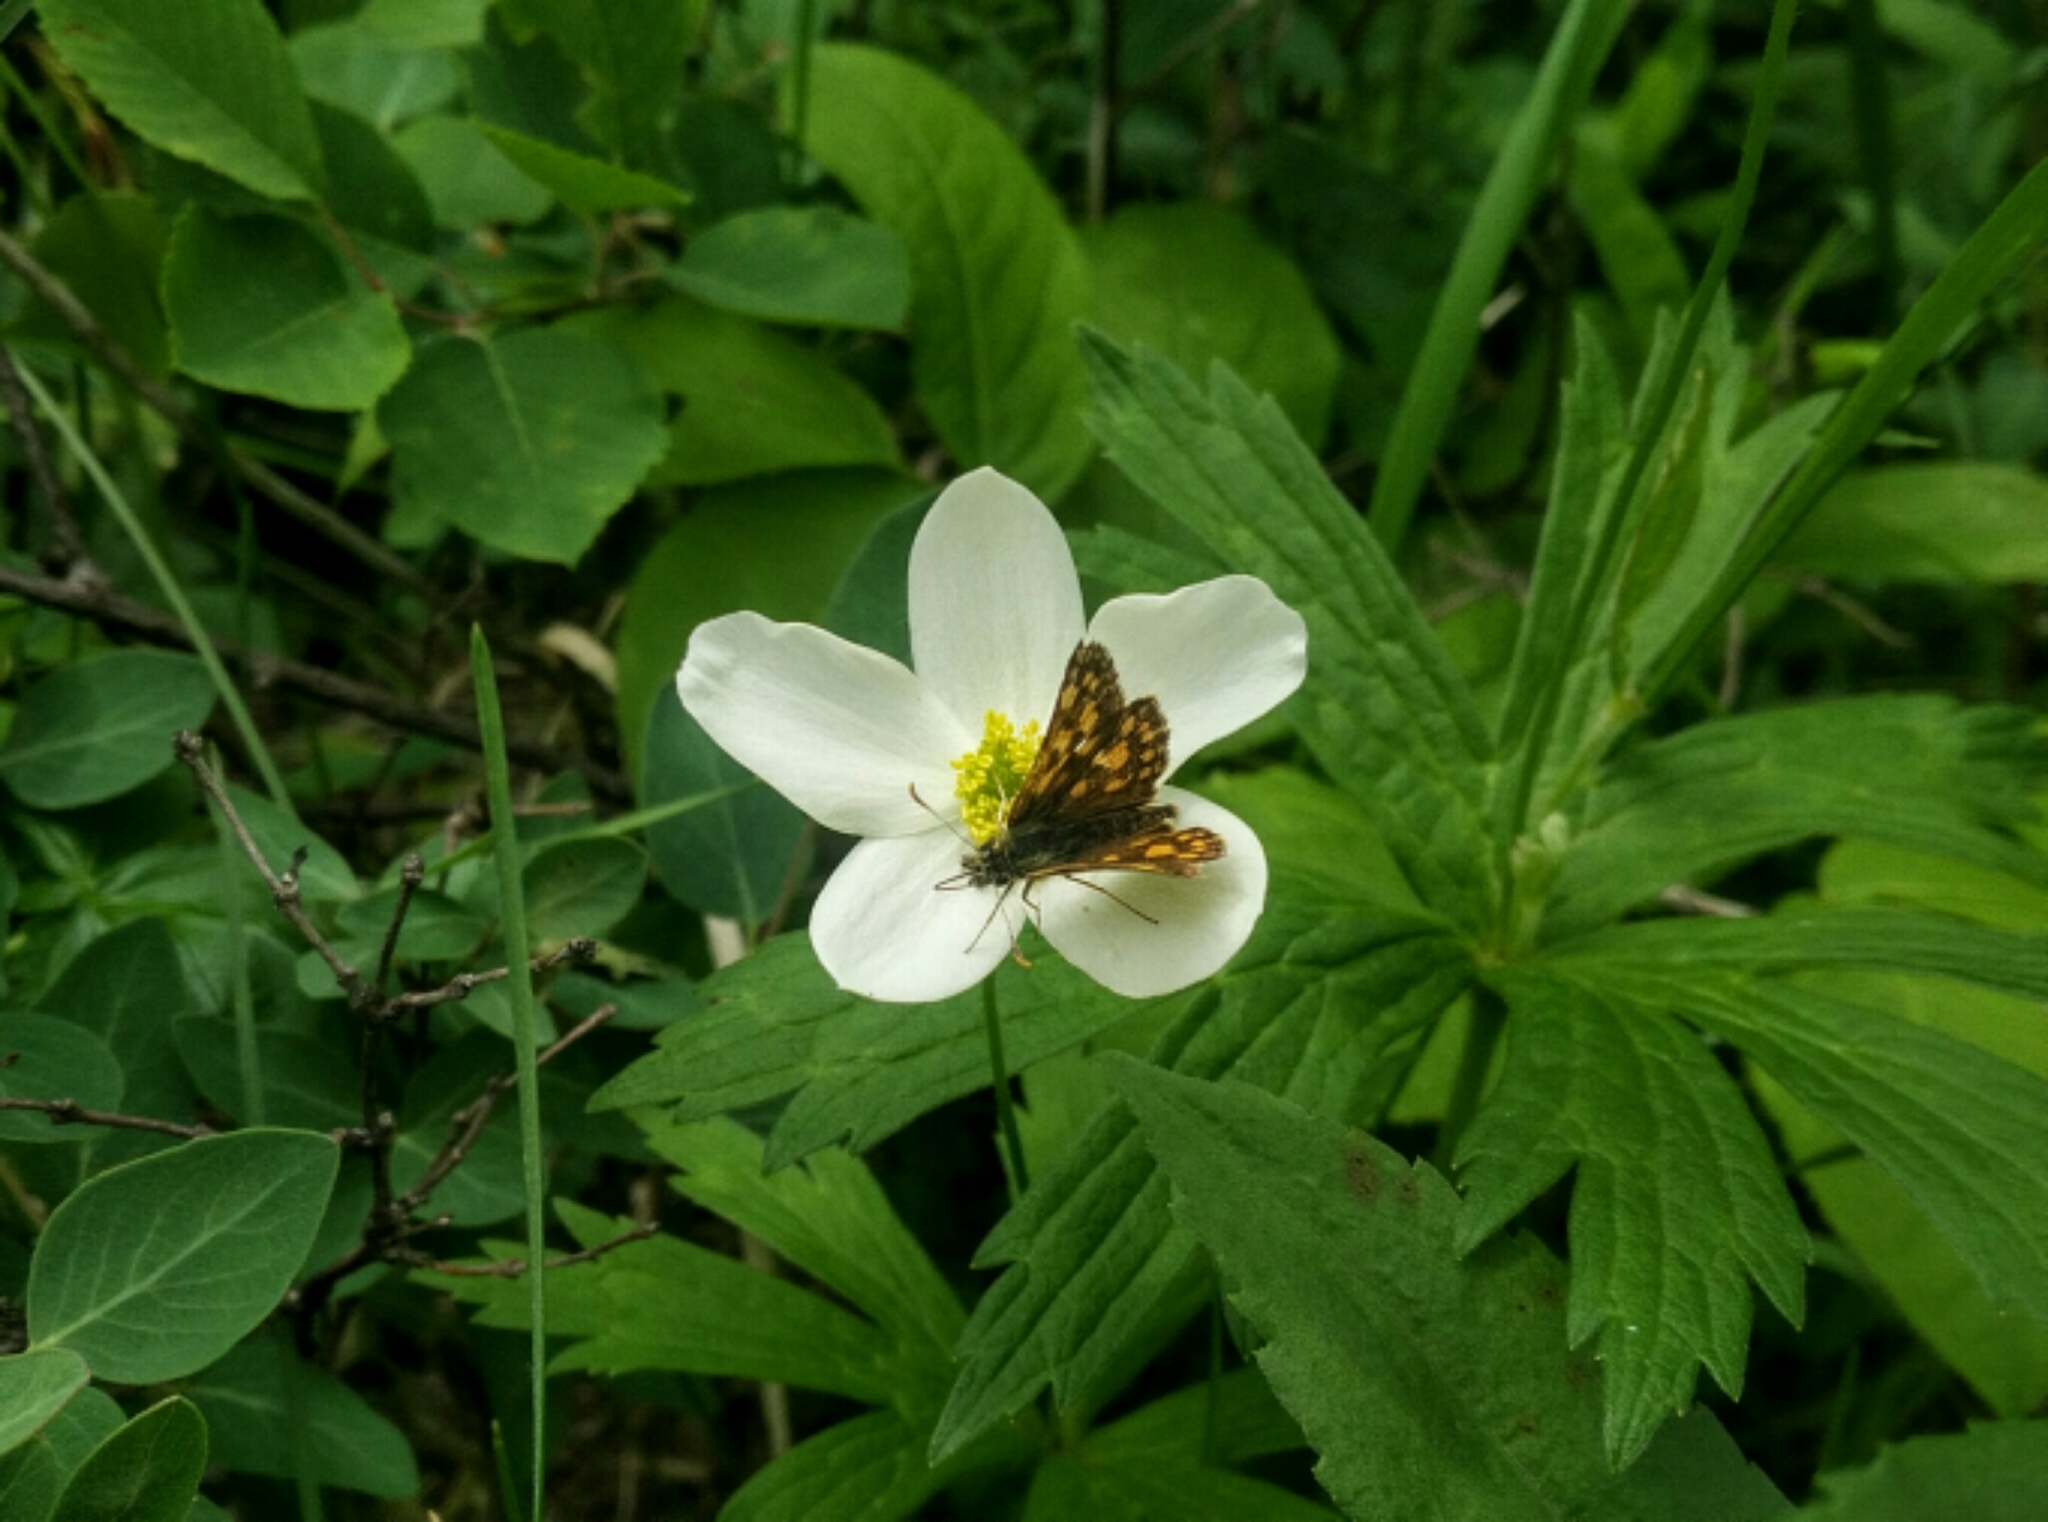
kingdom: Animalia
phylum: Arthropoda
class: Insecta
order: Lepidoptera
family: Hesperiidae
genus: Carterocephalus
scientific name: Carterocephalus mandan
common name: Arctic skipperling
